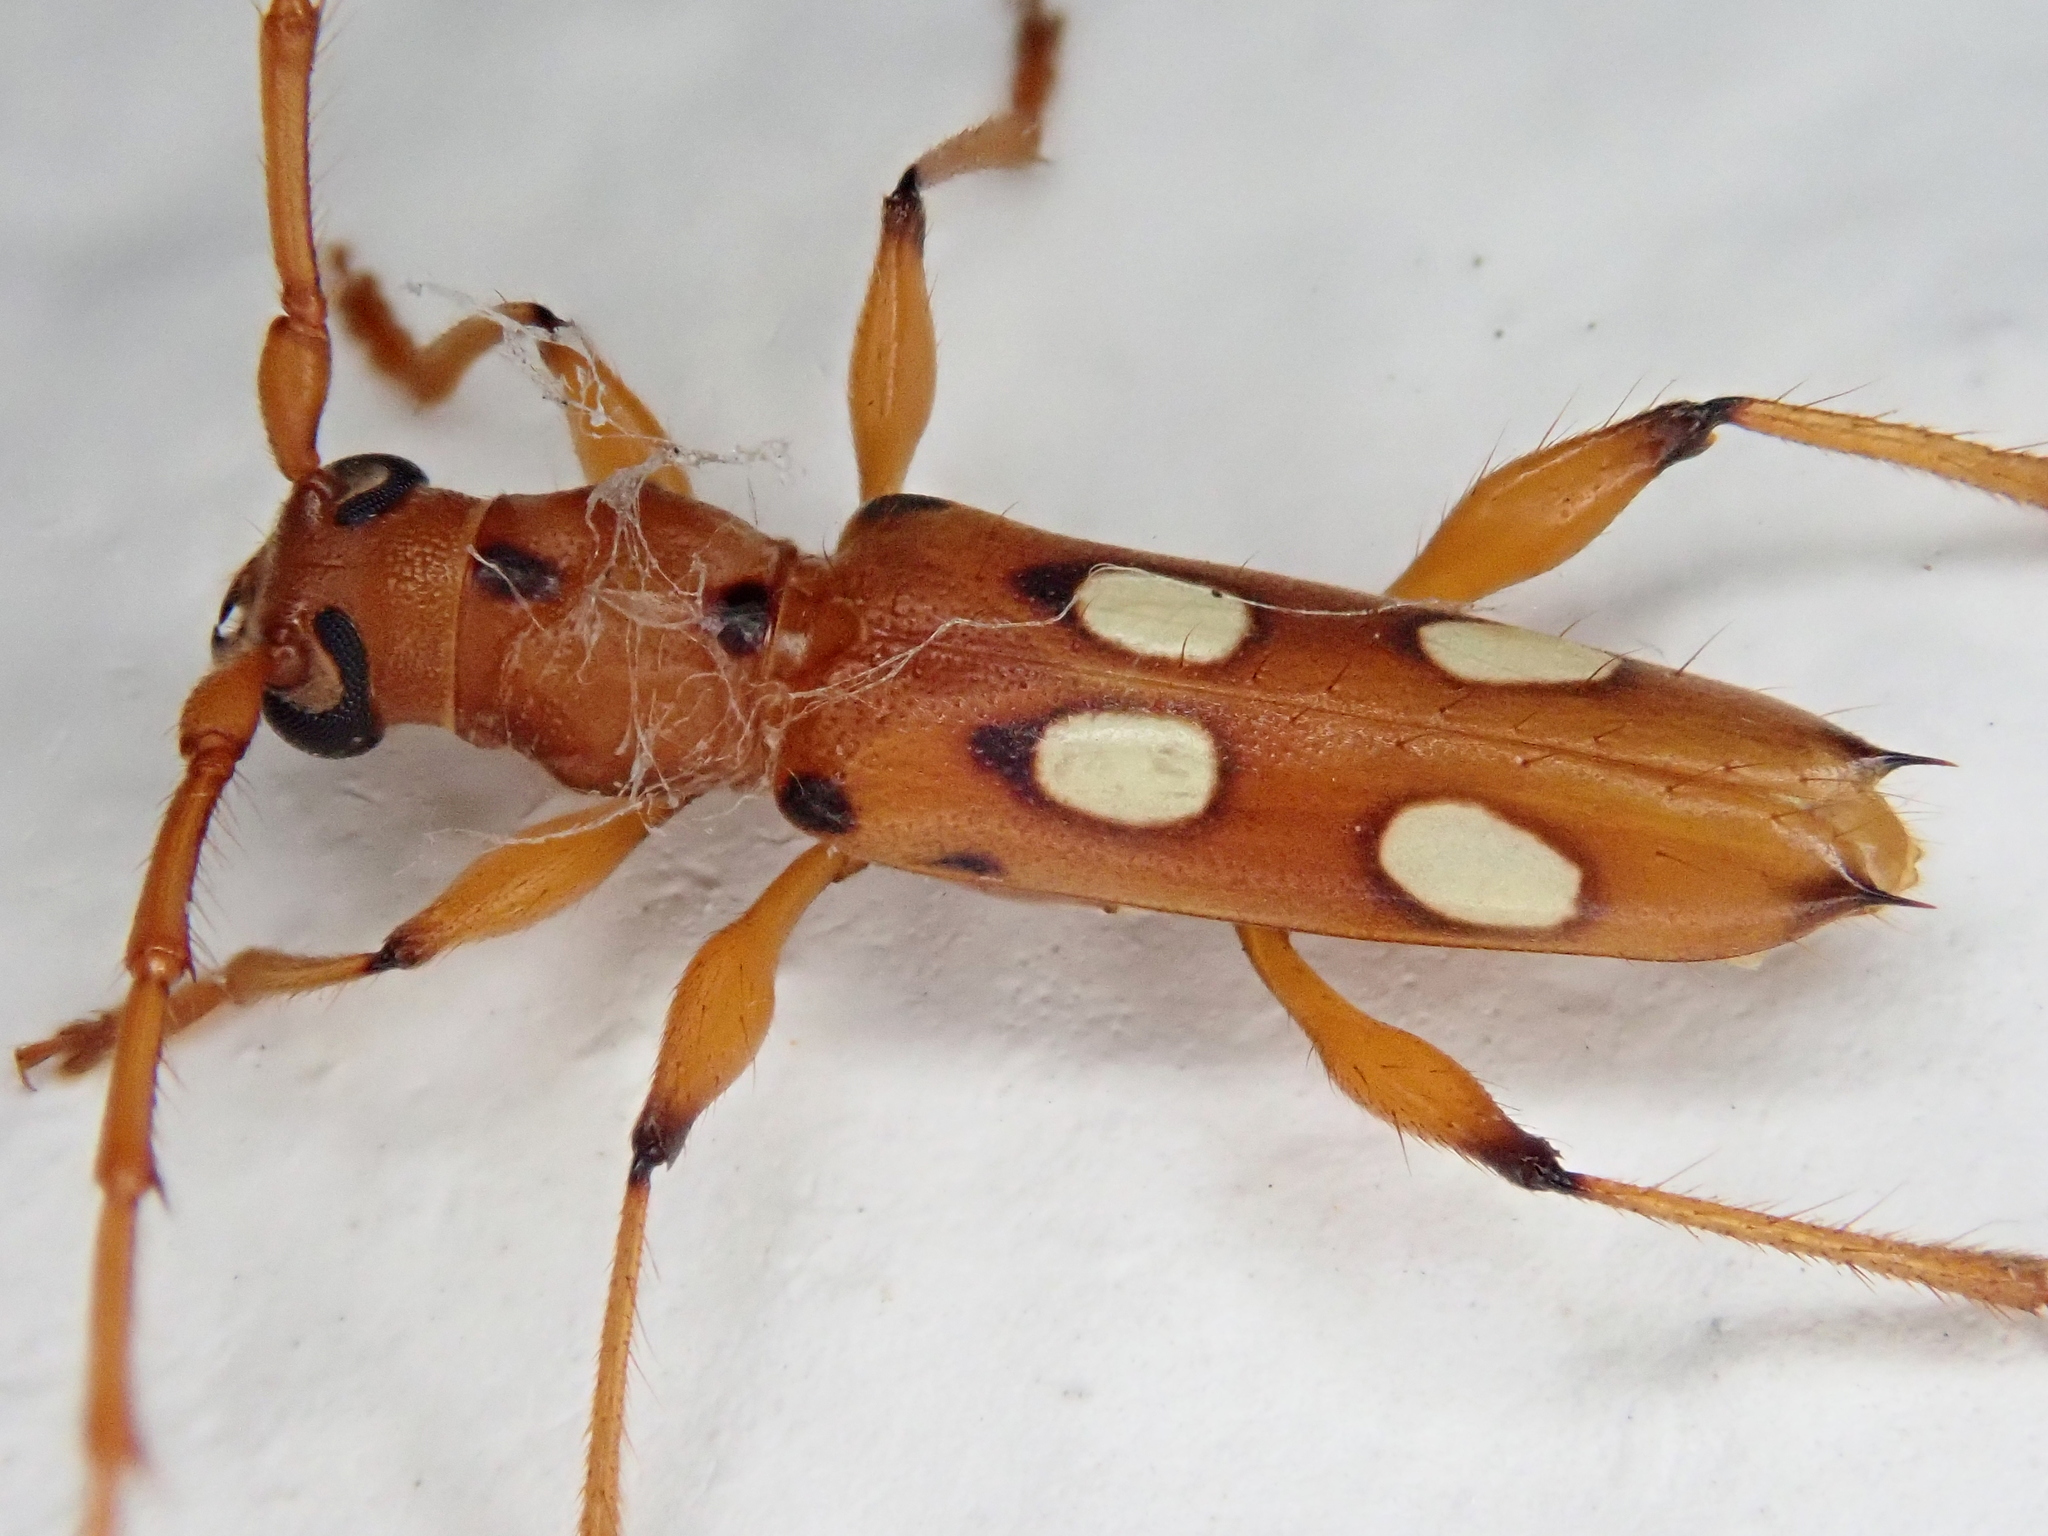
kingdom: Animalia
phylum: Arthropoda
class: Insecta
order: Coleoptera
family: Cerambycidae
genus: Paranyssicus
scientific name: Paranyssicus conspicillatus
